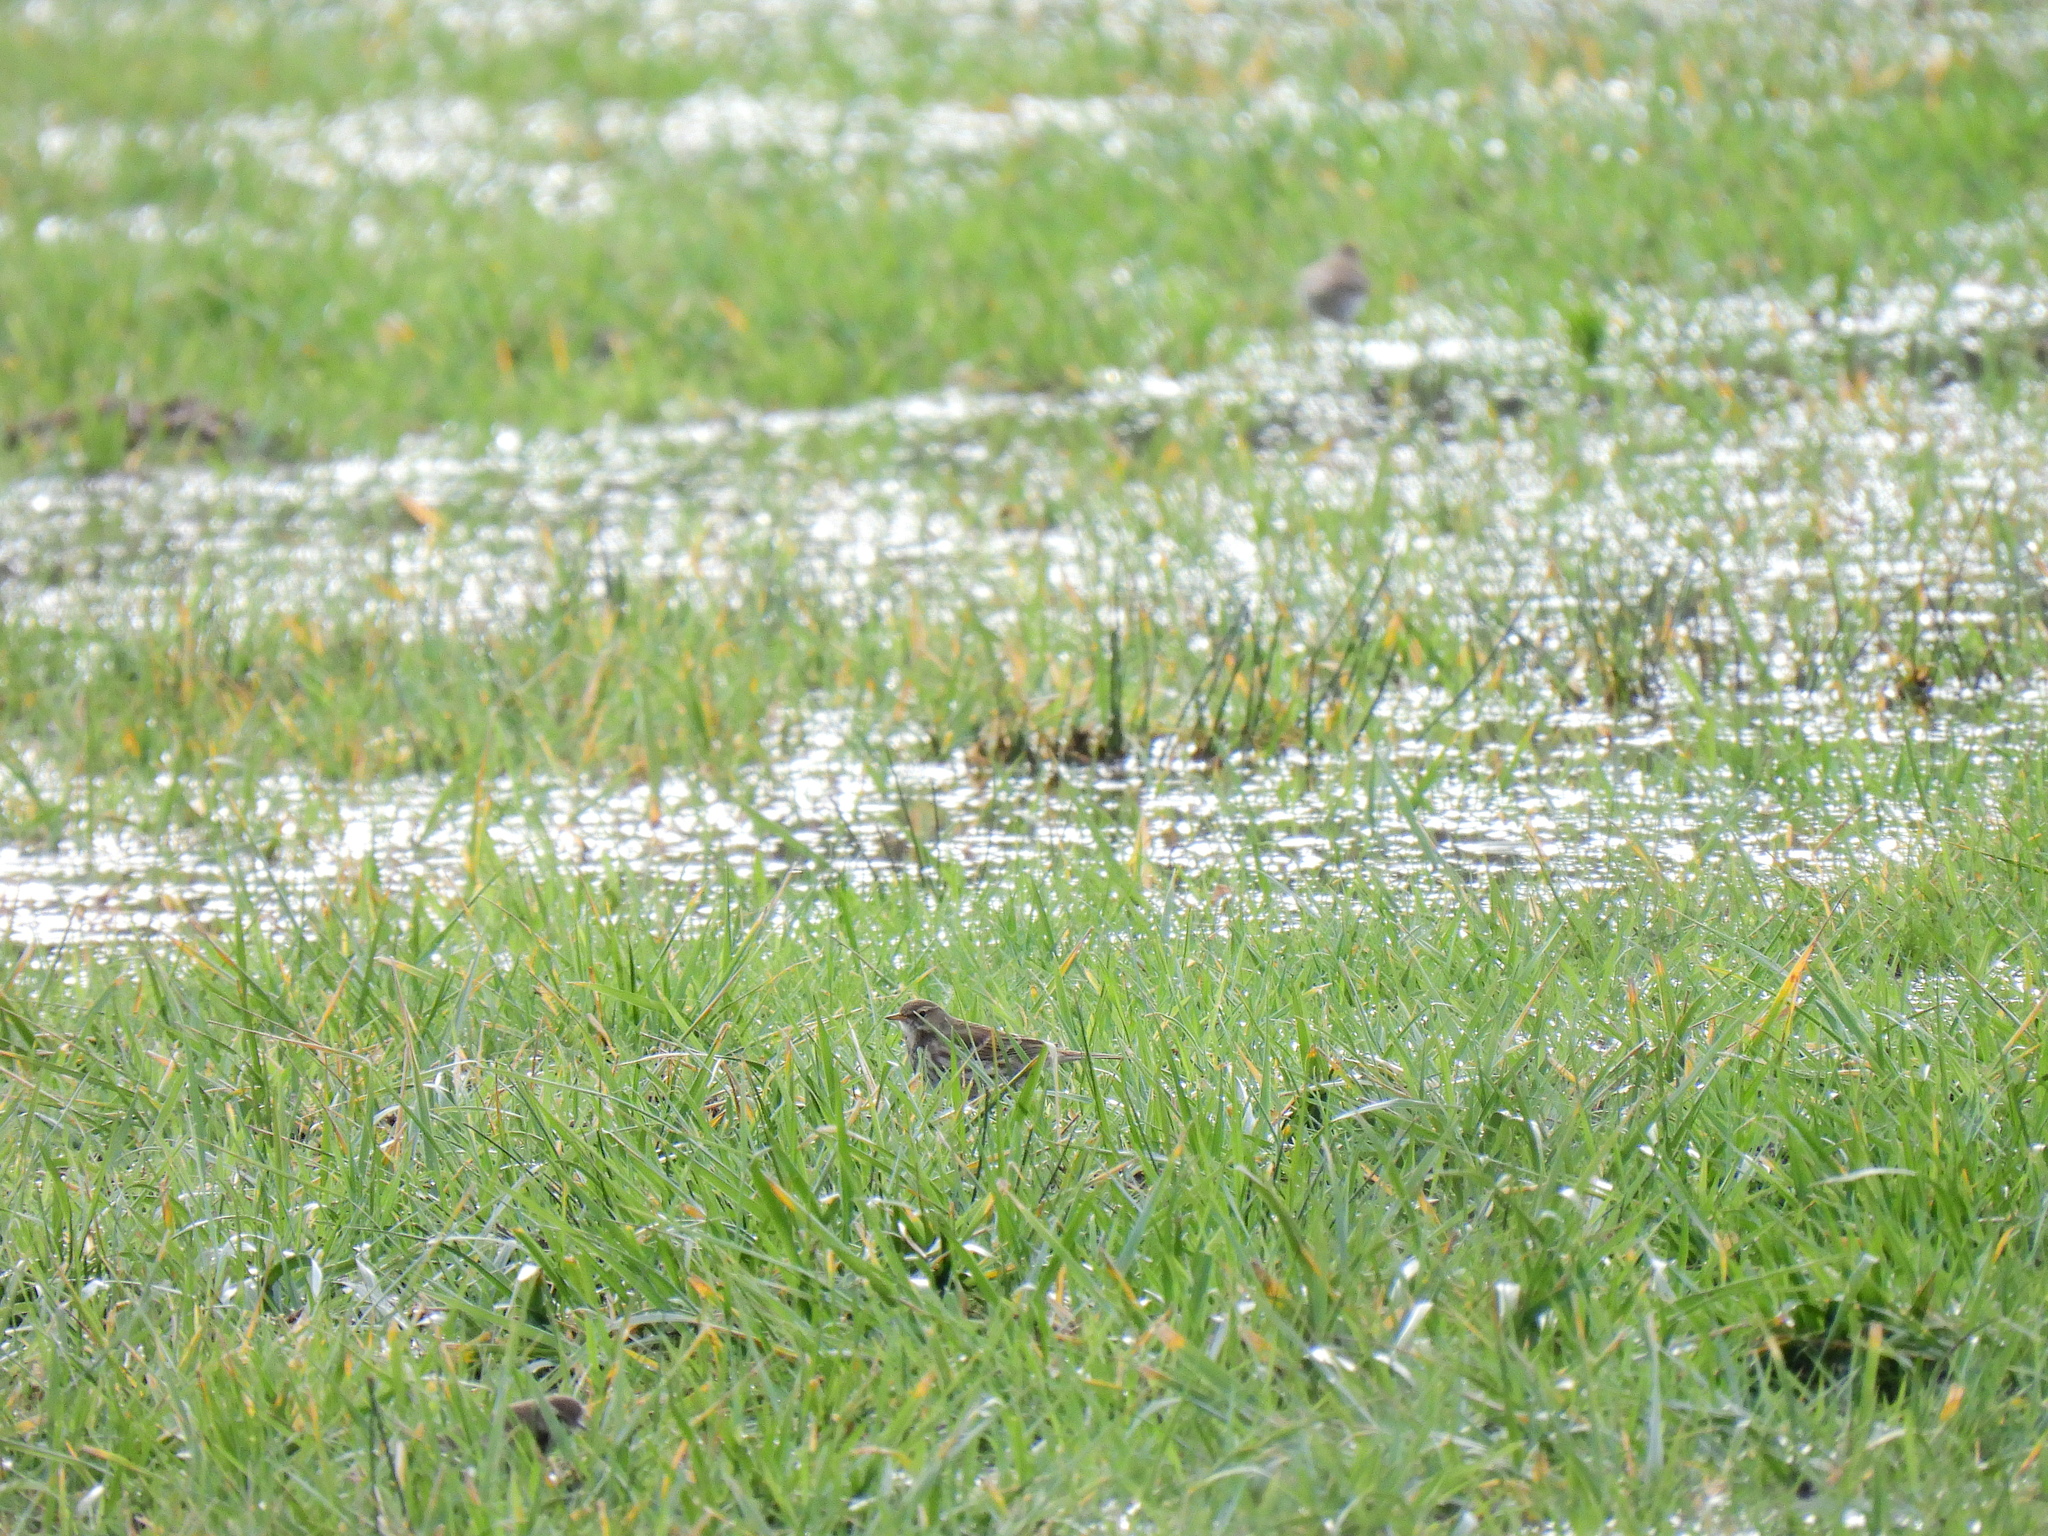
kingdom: Animalia
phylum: Chordata
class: Aves
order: Passeriformes
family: Motacillidae
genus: Anthus
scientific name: Anthus spinoletta
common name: Water pipit
